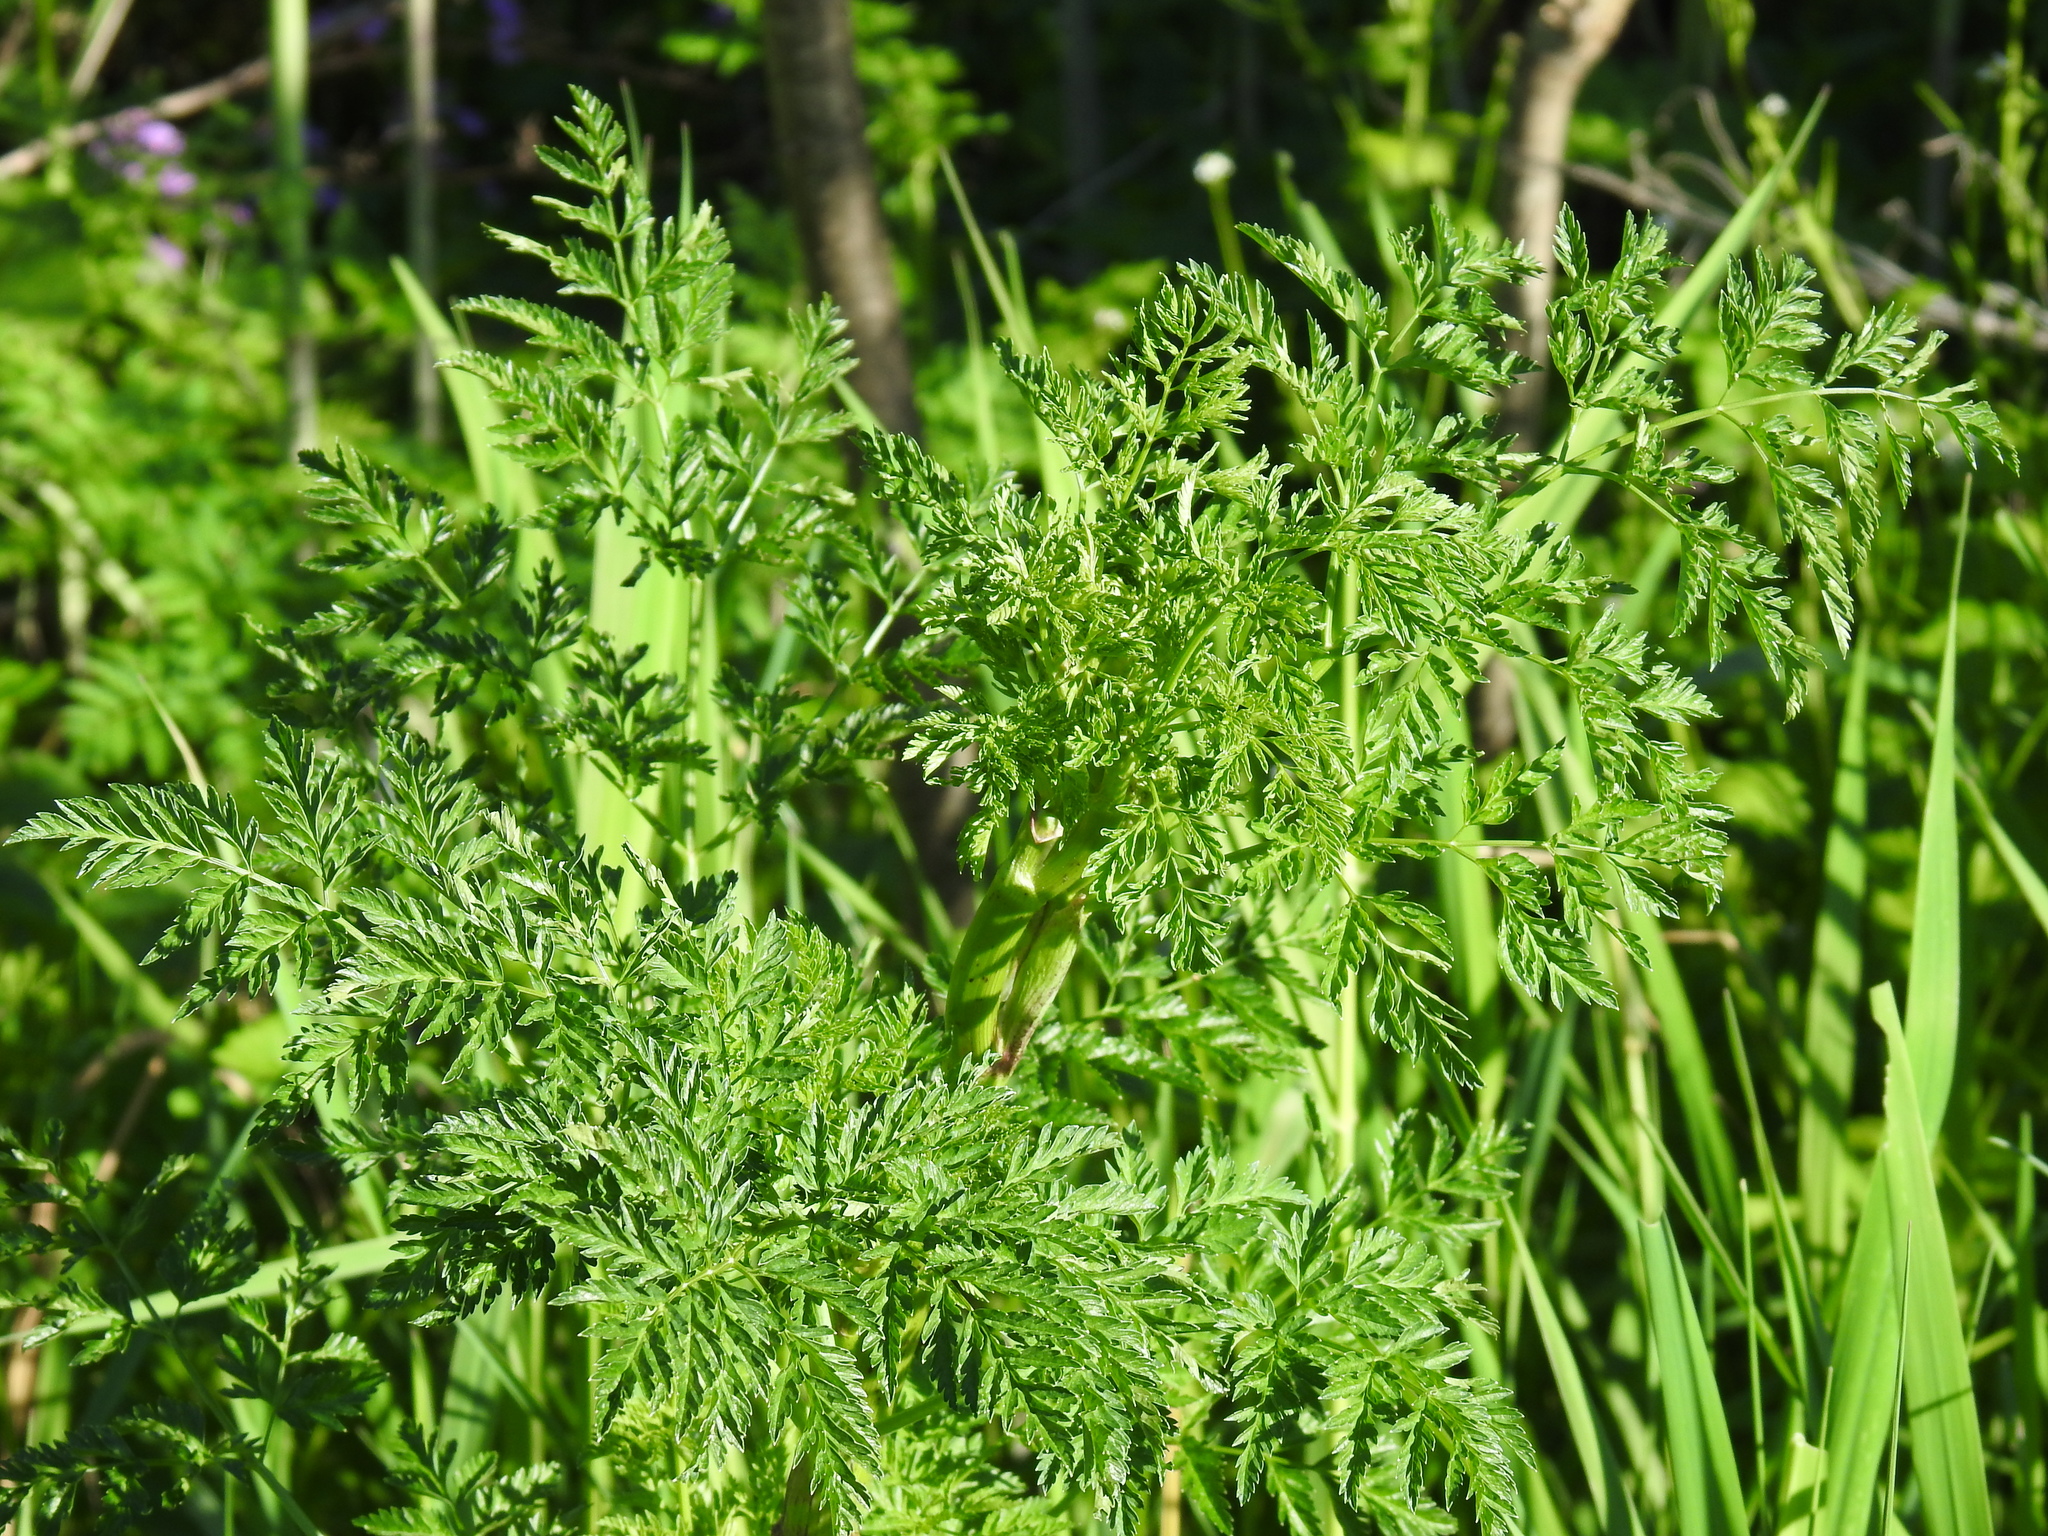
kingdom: Plantae
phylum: Tracheophyta
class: Magnoliopsida
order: Apiales
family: Apiaceae
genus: Conium
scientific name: Conium maculatum
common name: Hemlock
